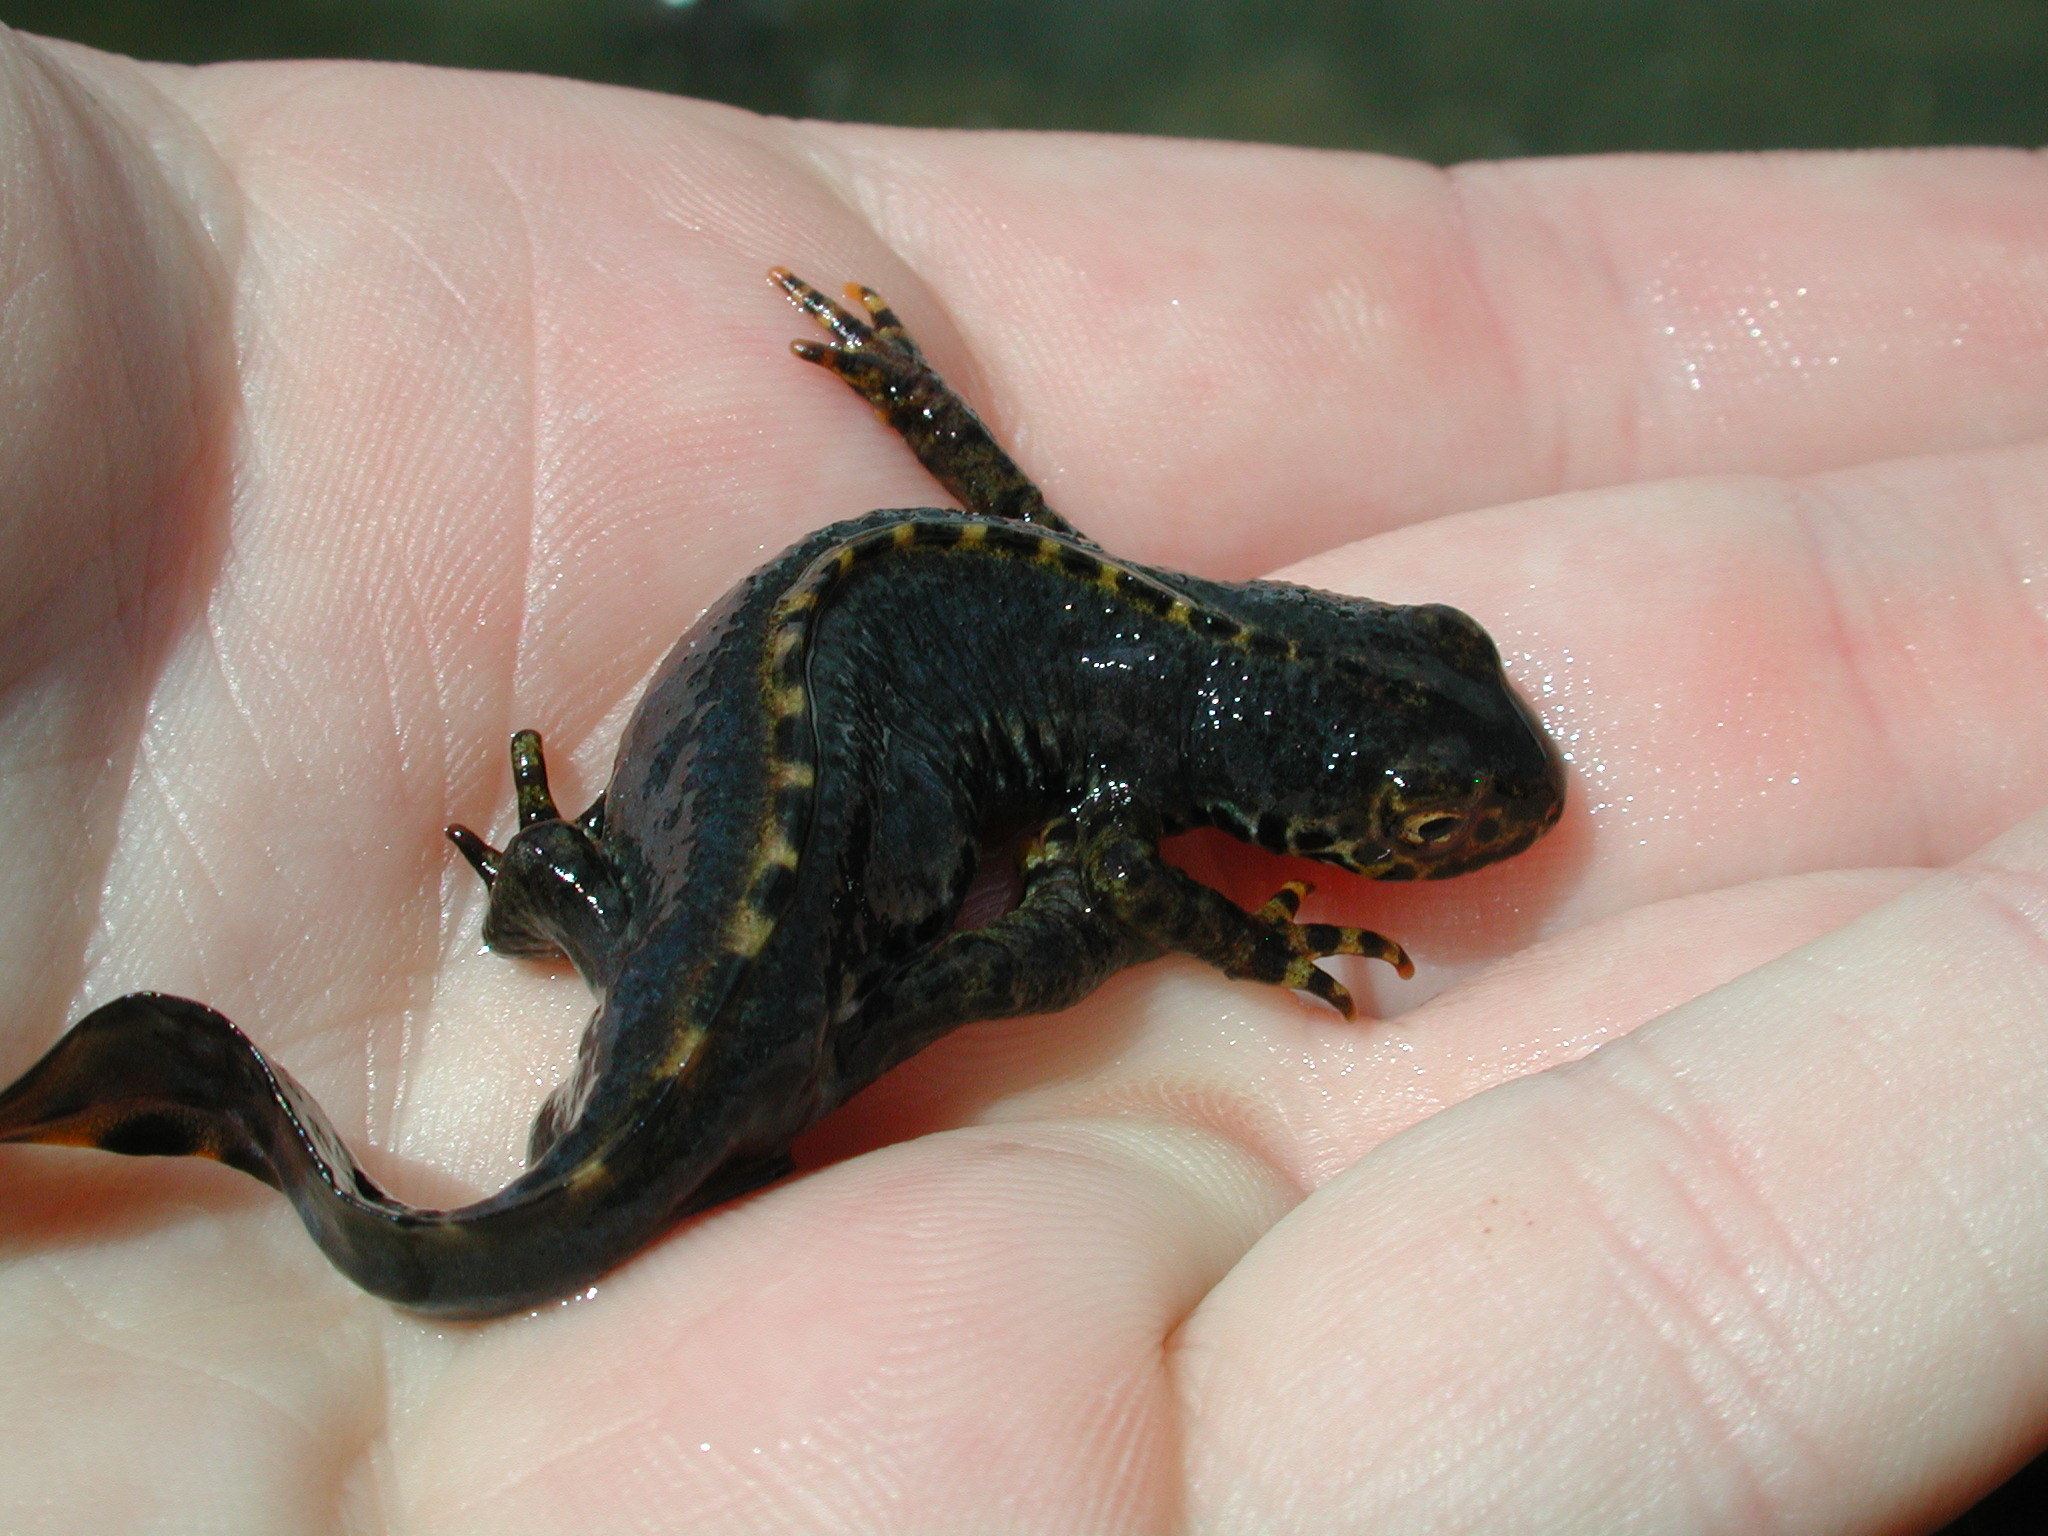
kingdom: Animalia
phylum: Chordata
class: Amphibia
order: Caudata
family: Salamandridae
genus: Ichthyosaura
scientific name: Ichthyosaura alpestris
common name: Alpine newt
